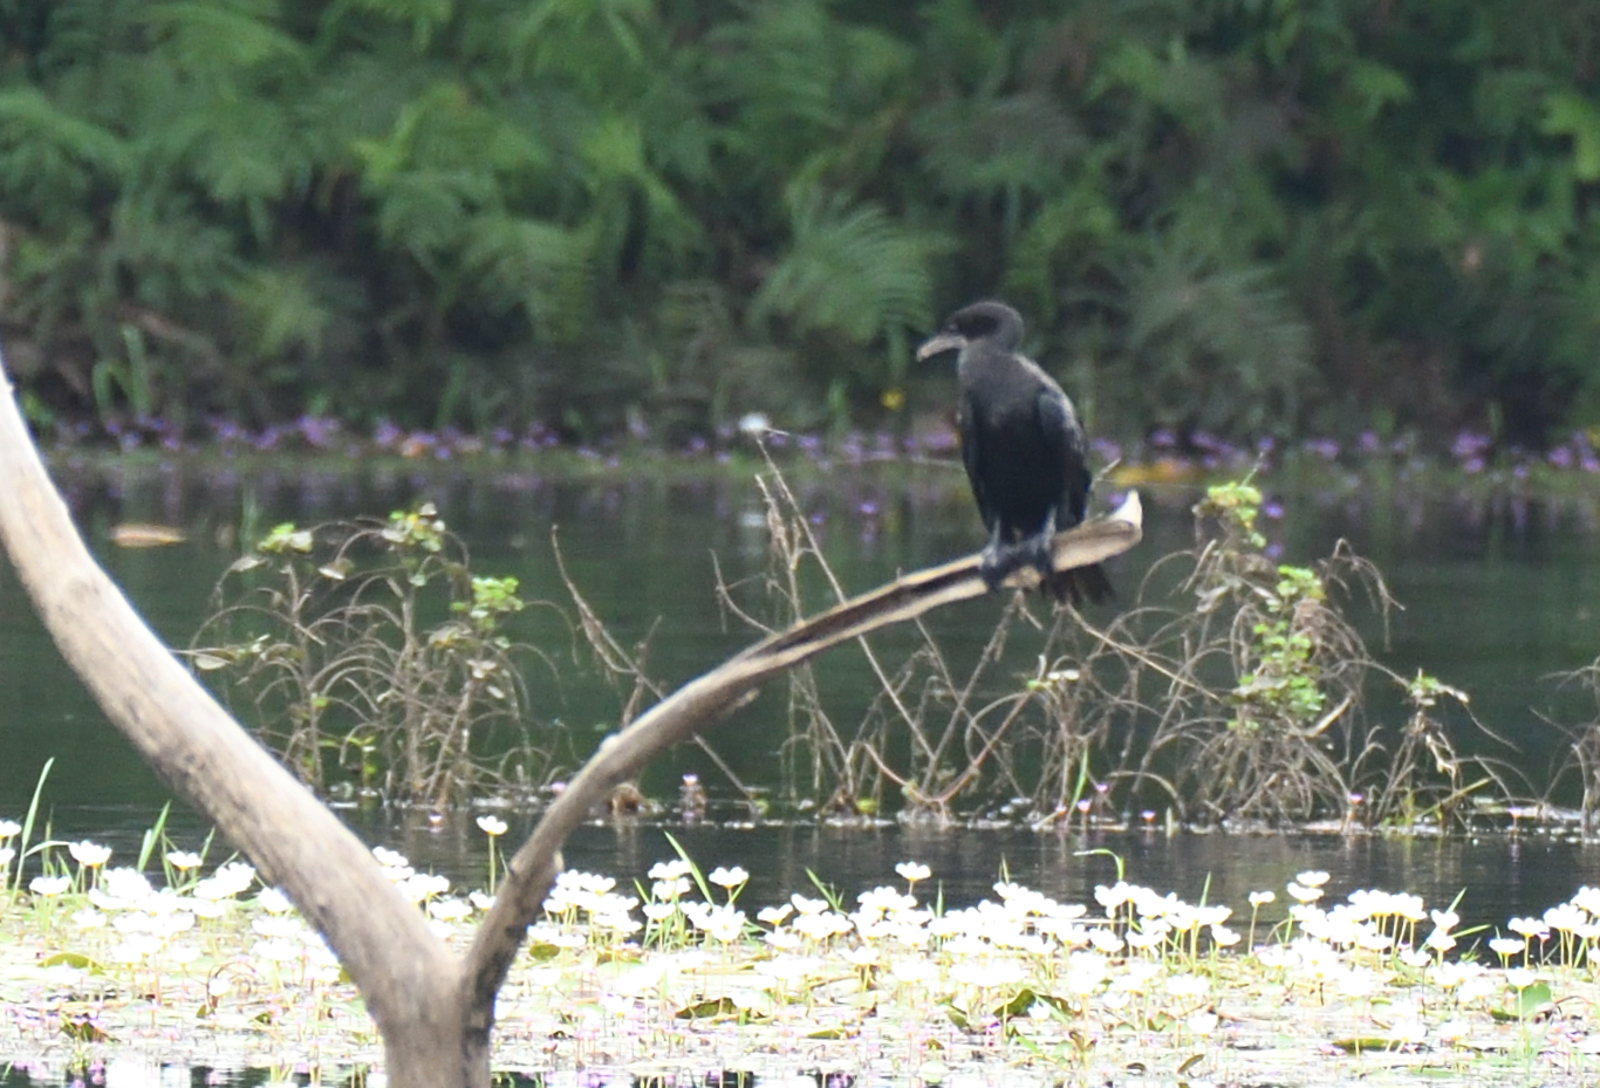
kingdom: Animalia
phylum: Chordata
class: Aves
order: Suliformes
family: Phalacrocoracidae
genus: Microcarbo
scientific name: Microcarbo niger
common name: Little cormorant
